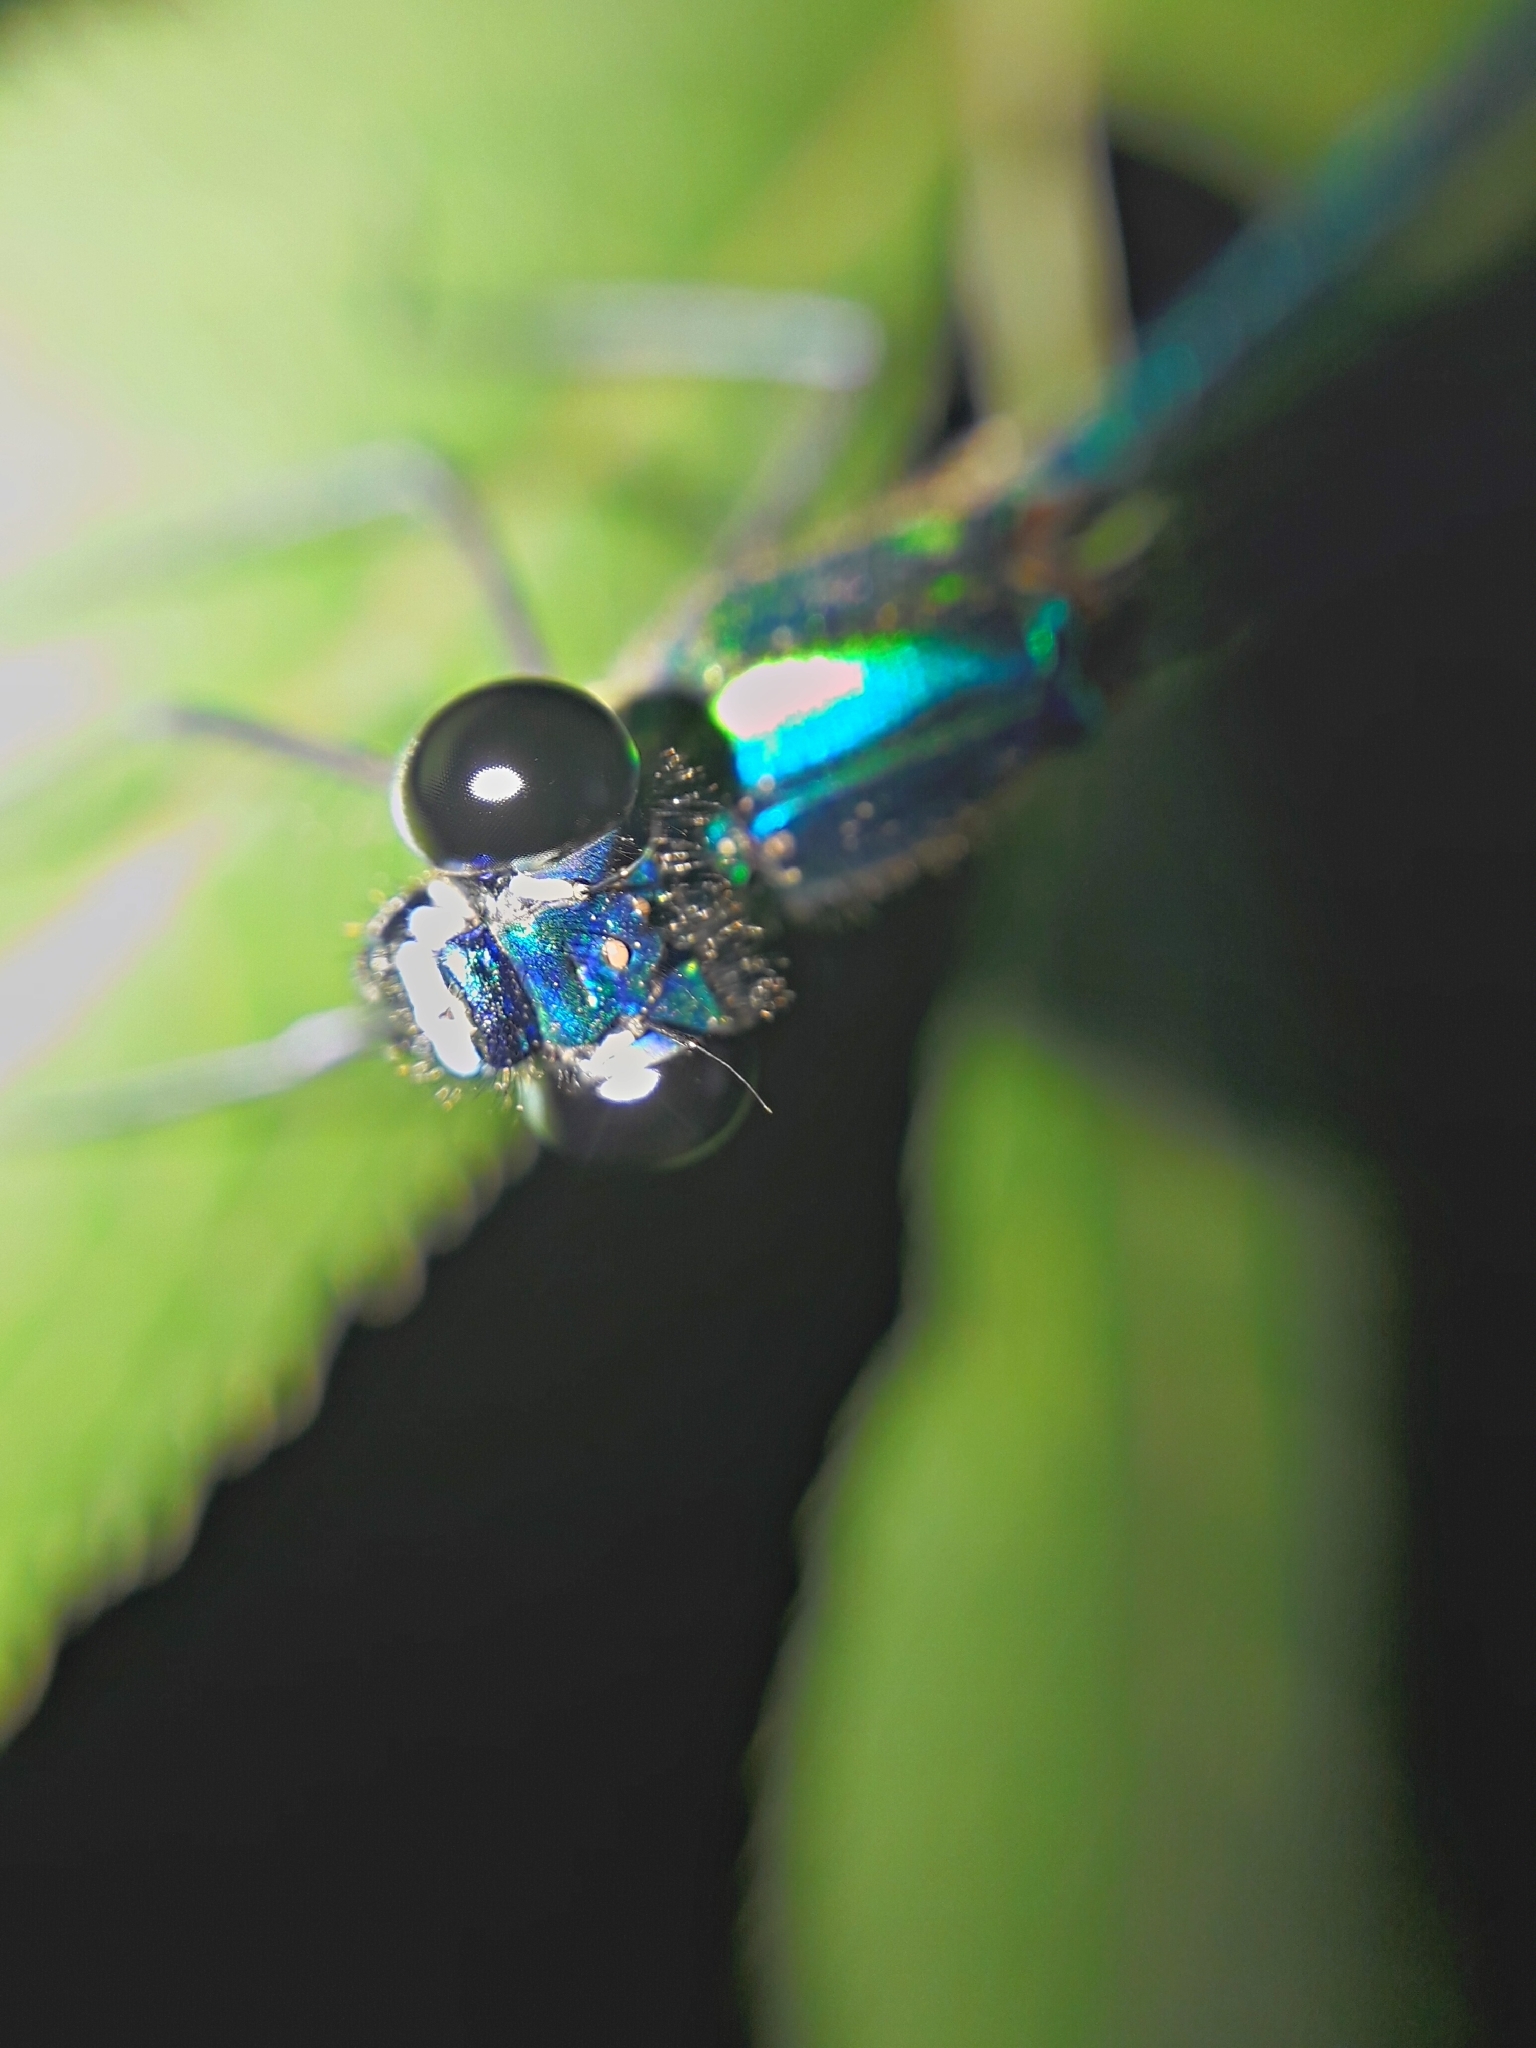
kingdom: Animalia
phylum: Arthropoda
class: Insecta
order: Odonata
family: Calopterygidae
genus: Calopteryx
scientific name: Calopteryx splendens
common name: Banded demoiselle
